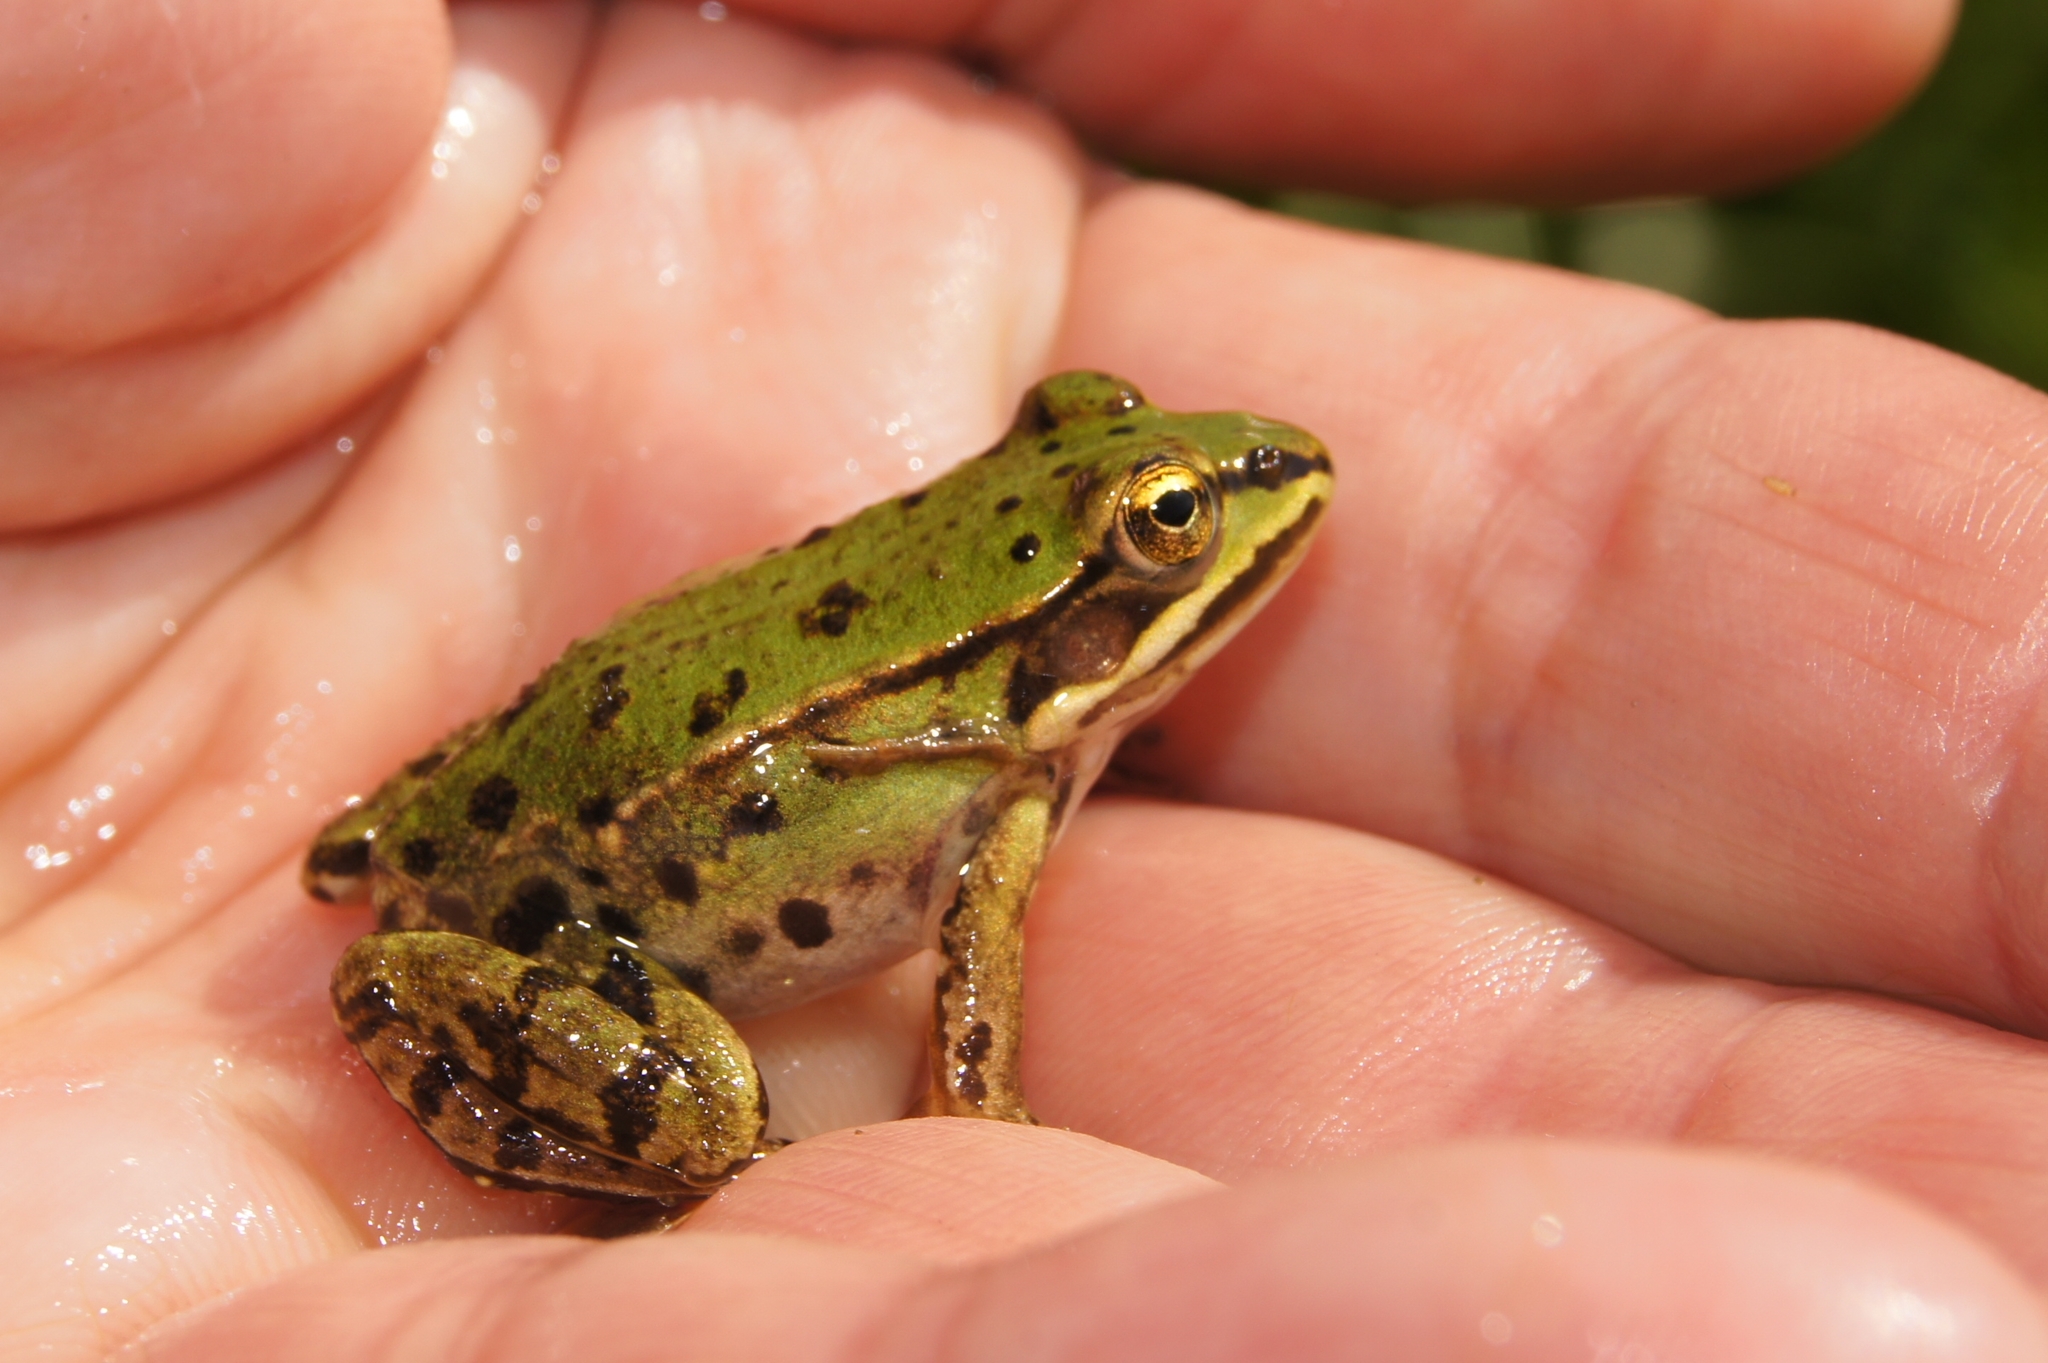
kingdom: Animalia
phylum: Chordata
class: Amphibia
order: Anura
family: Ranidae
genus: Pelophylax
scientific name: Pelophylax
